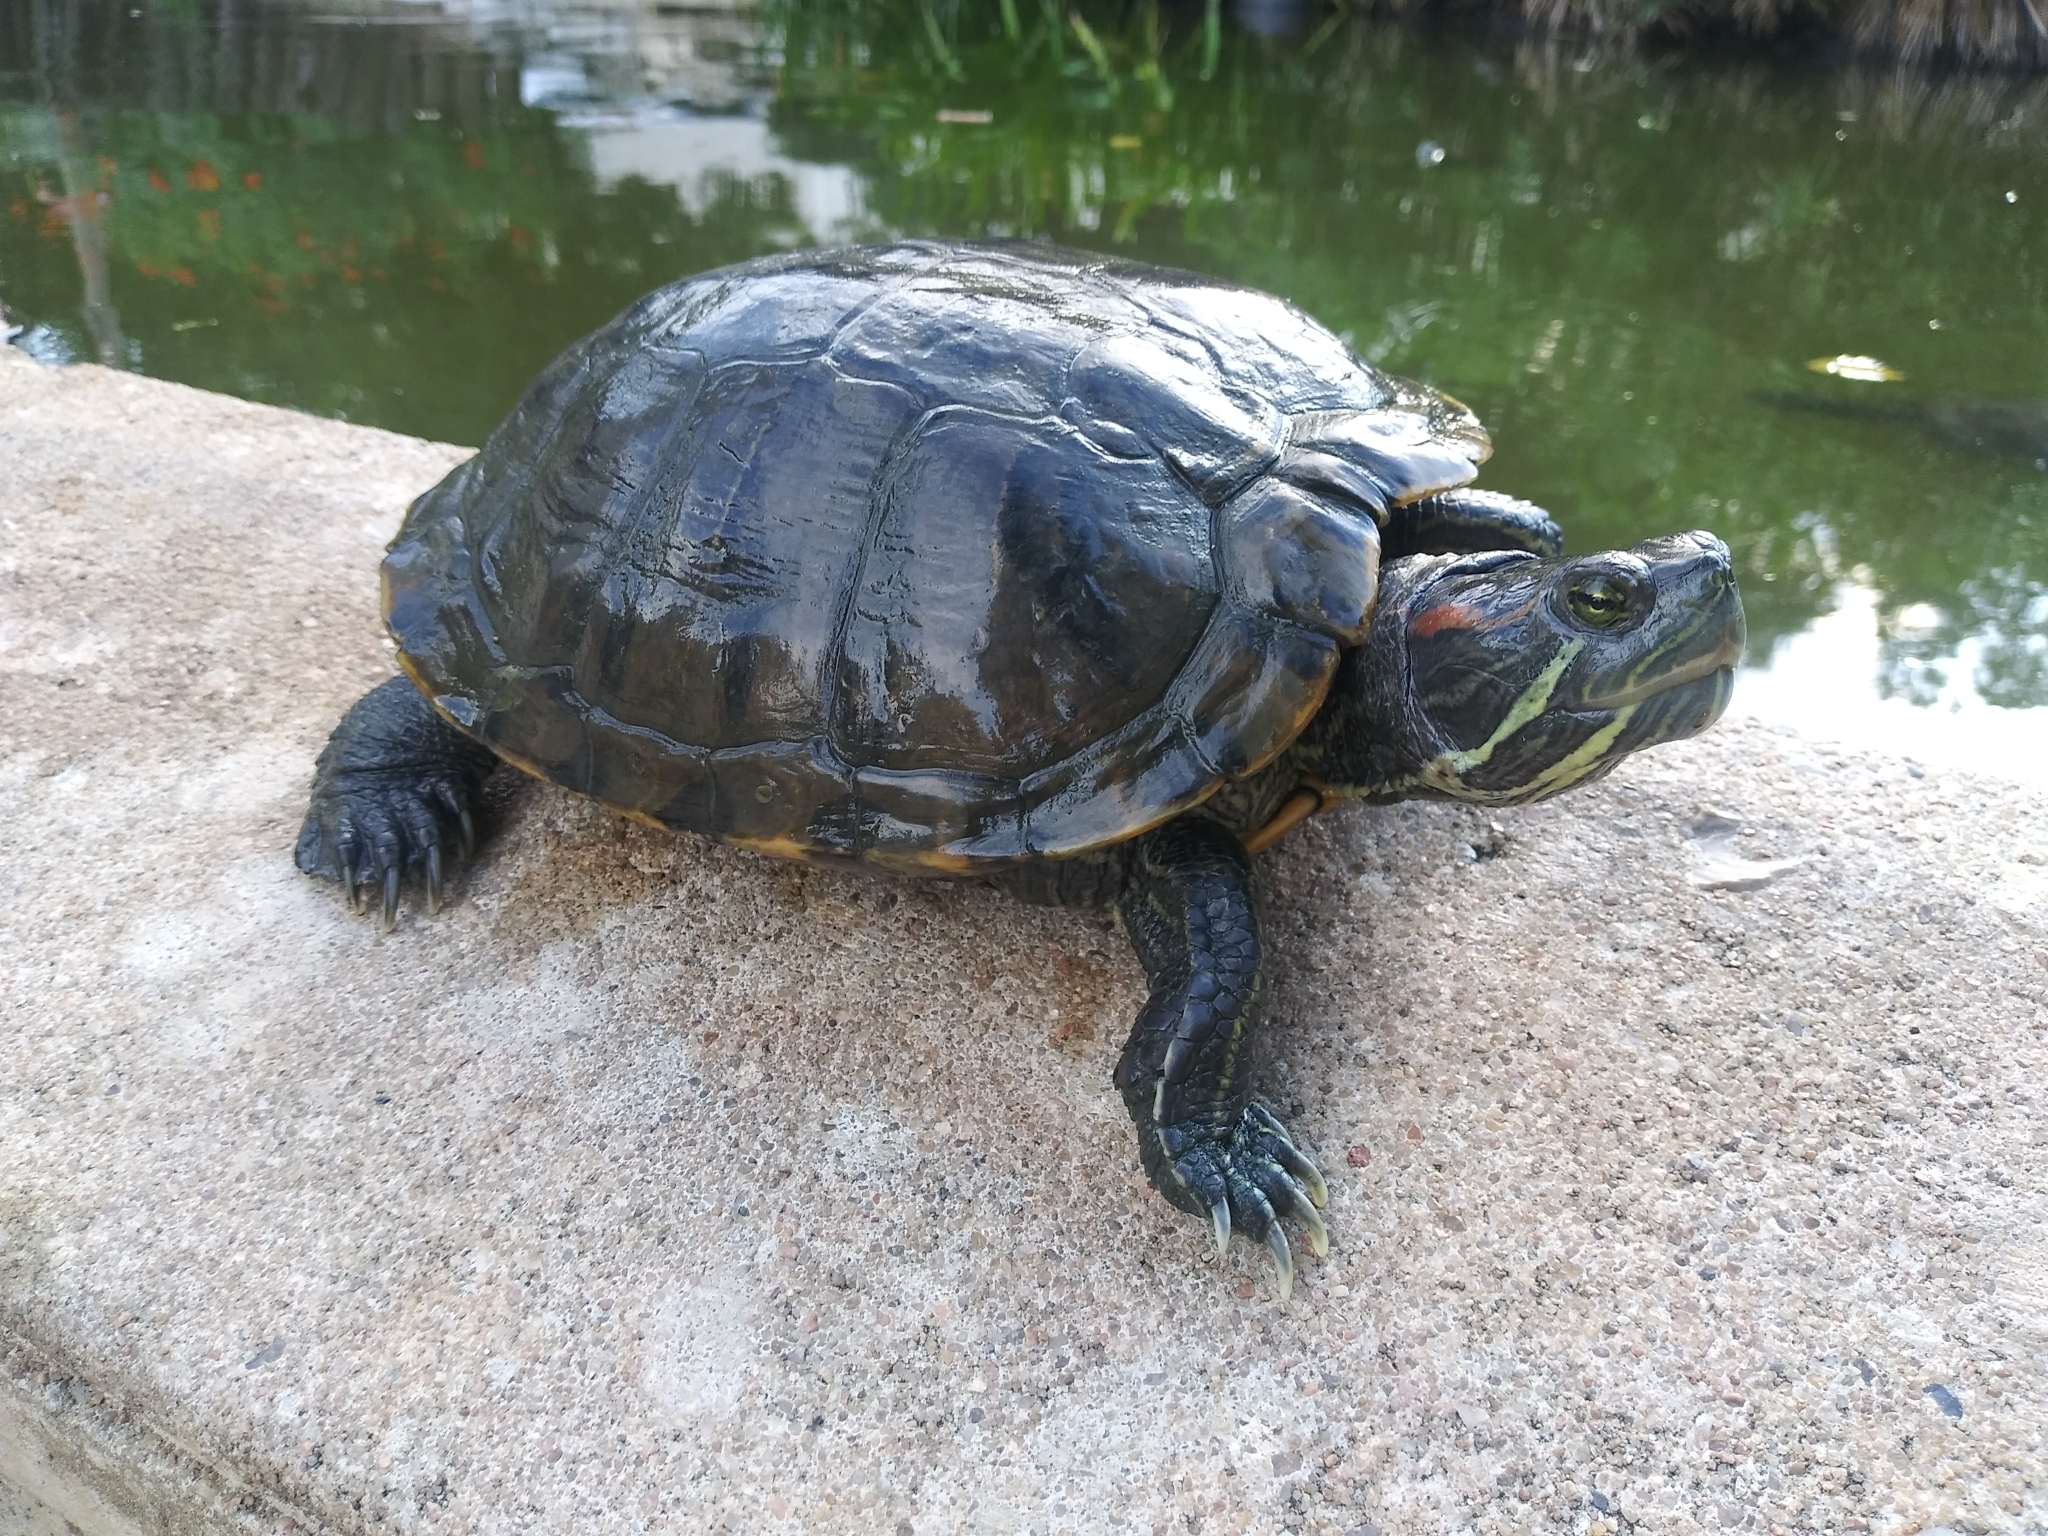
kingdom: Animalia
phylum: Chordata
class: Testudines
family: Emydidae
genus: Trachemys
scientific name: Trachemys scripta
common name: Slider
